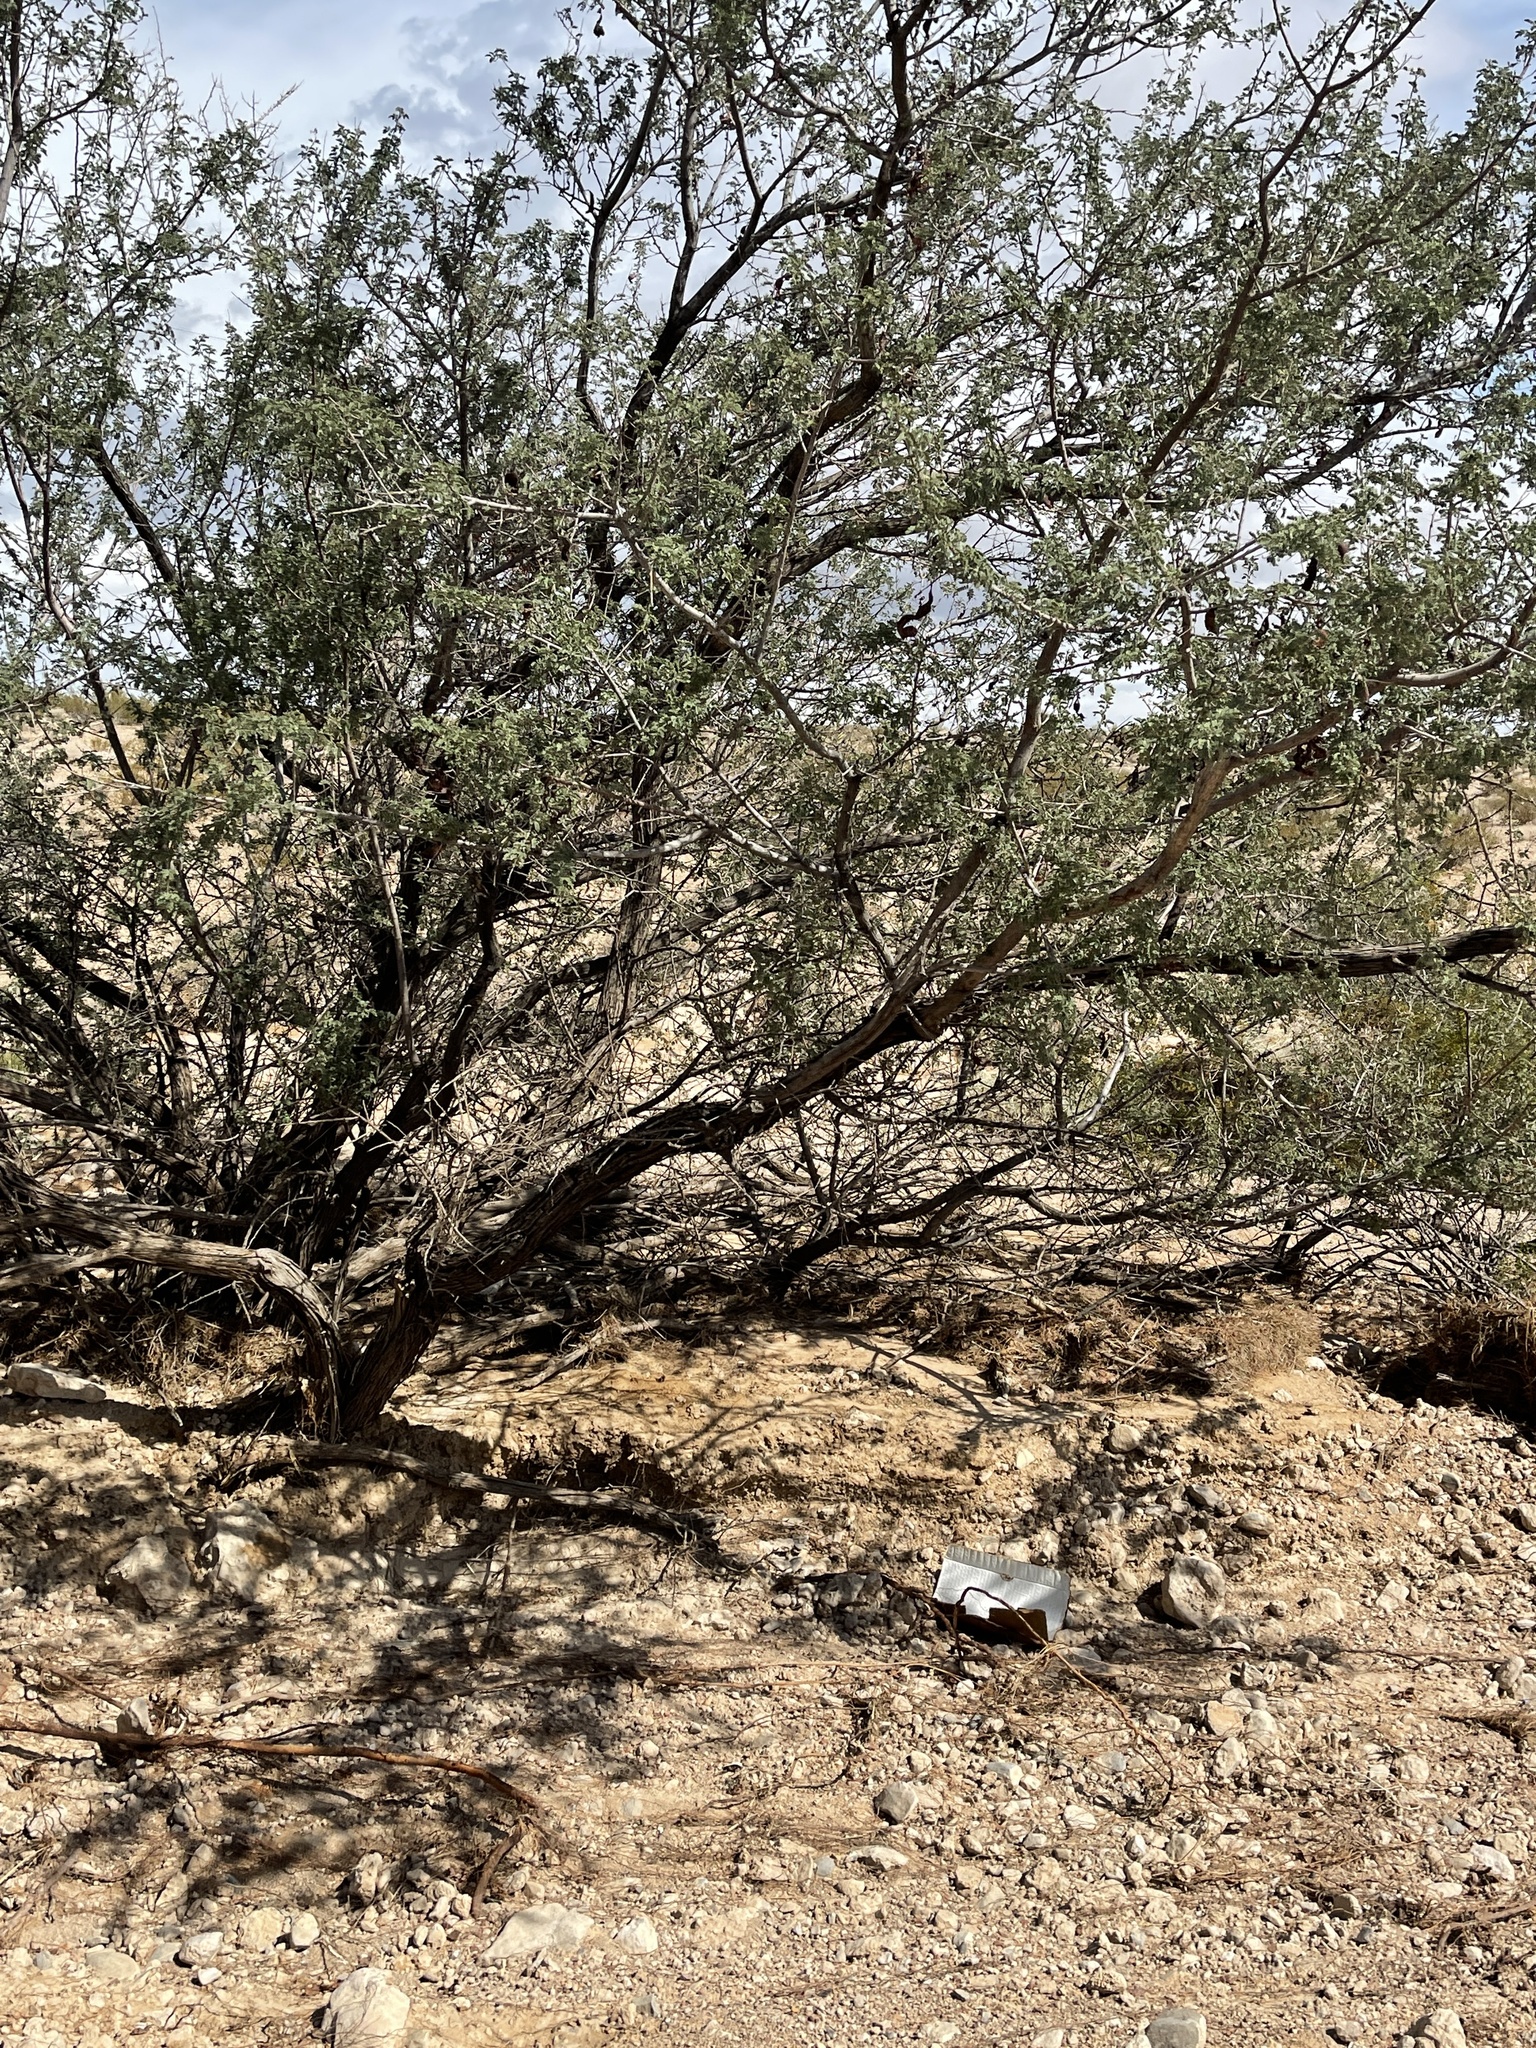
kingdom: Plantae
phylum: Tracheophyta
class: Magnoliopsida
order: Fabales
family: Fabaceae
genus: Senegalia
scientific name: Senegalia greggii
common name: Texas-mimosa
